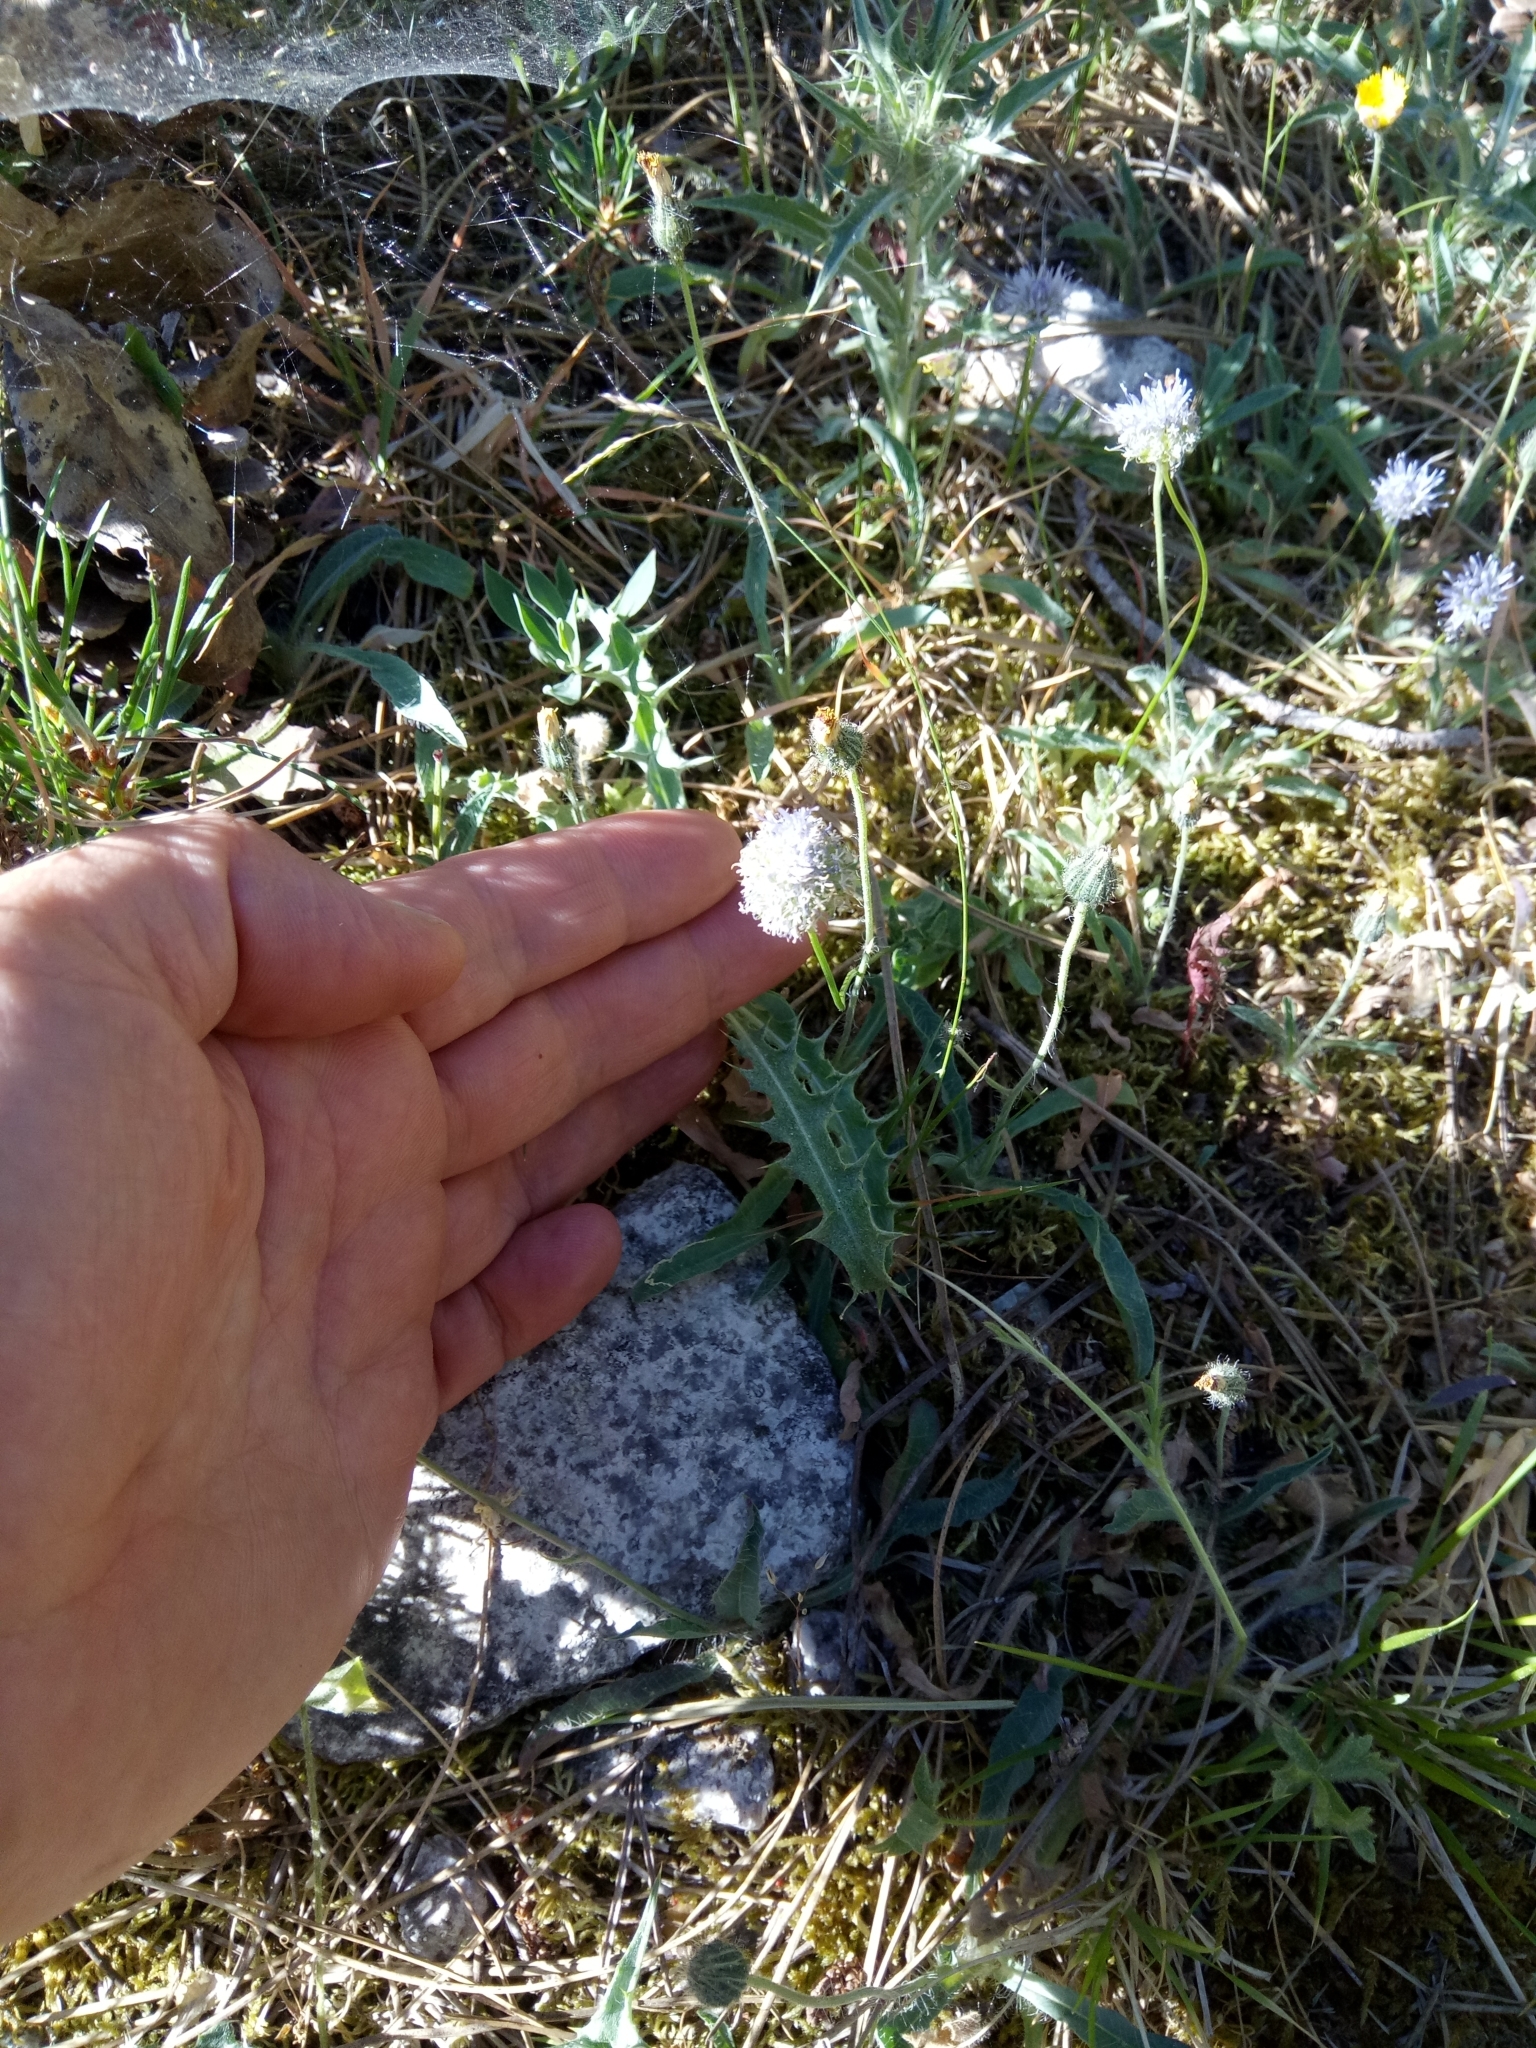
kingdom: Plantae
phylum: Tracheophyta
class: Magnoliopsida
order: Asterales
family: Campanulaceae
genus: Jasione
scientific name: Jasione montana
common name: Sheep's-bit
